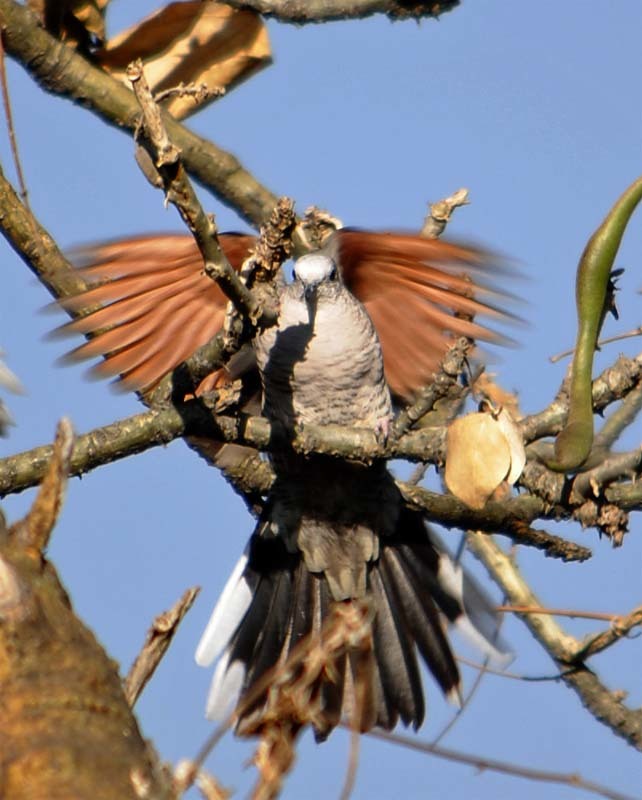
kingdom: Animalia
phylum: Chordata
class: Aves
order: Columbiformes
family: Columbidae
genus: Columbina
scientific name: Columbina inca
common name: Inca dove
